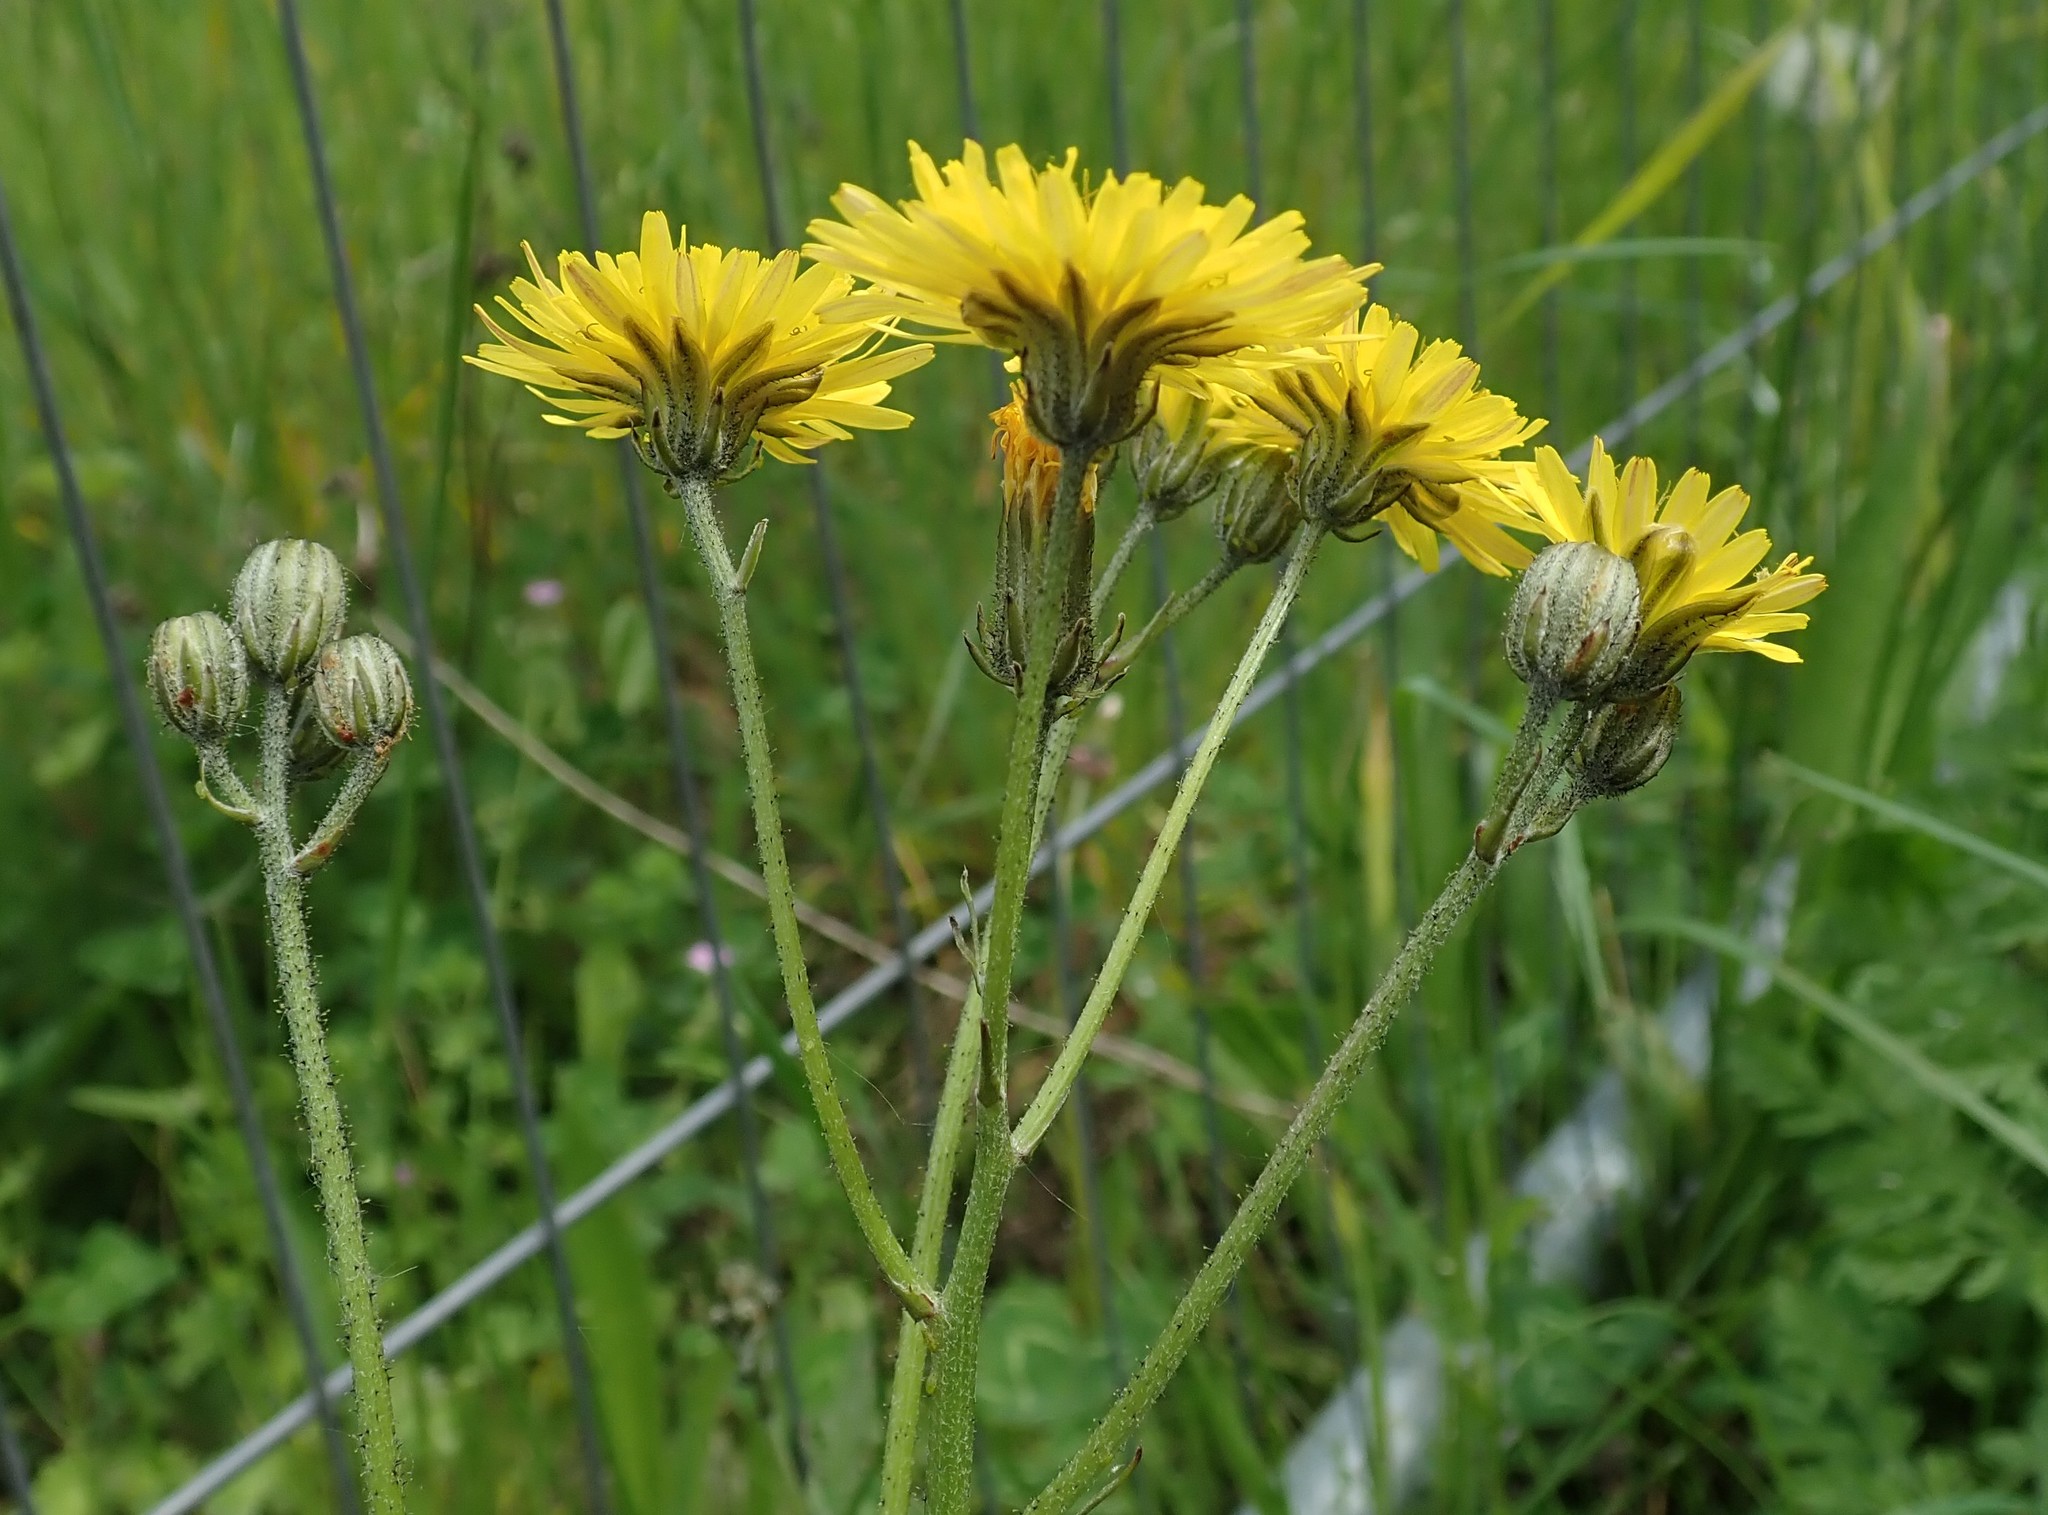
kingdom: Plantae
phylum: Tracheophyta
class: Magnoliopsida
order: Asterales
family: Asteraceae
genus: Crepis
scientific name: Crepis vesicaria
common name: Beaked hawksbeard
